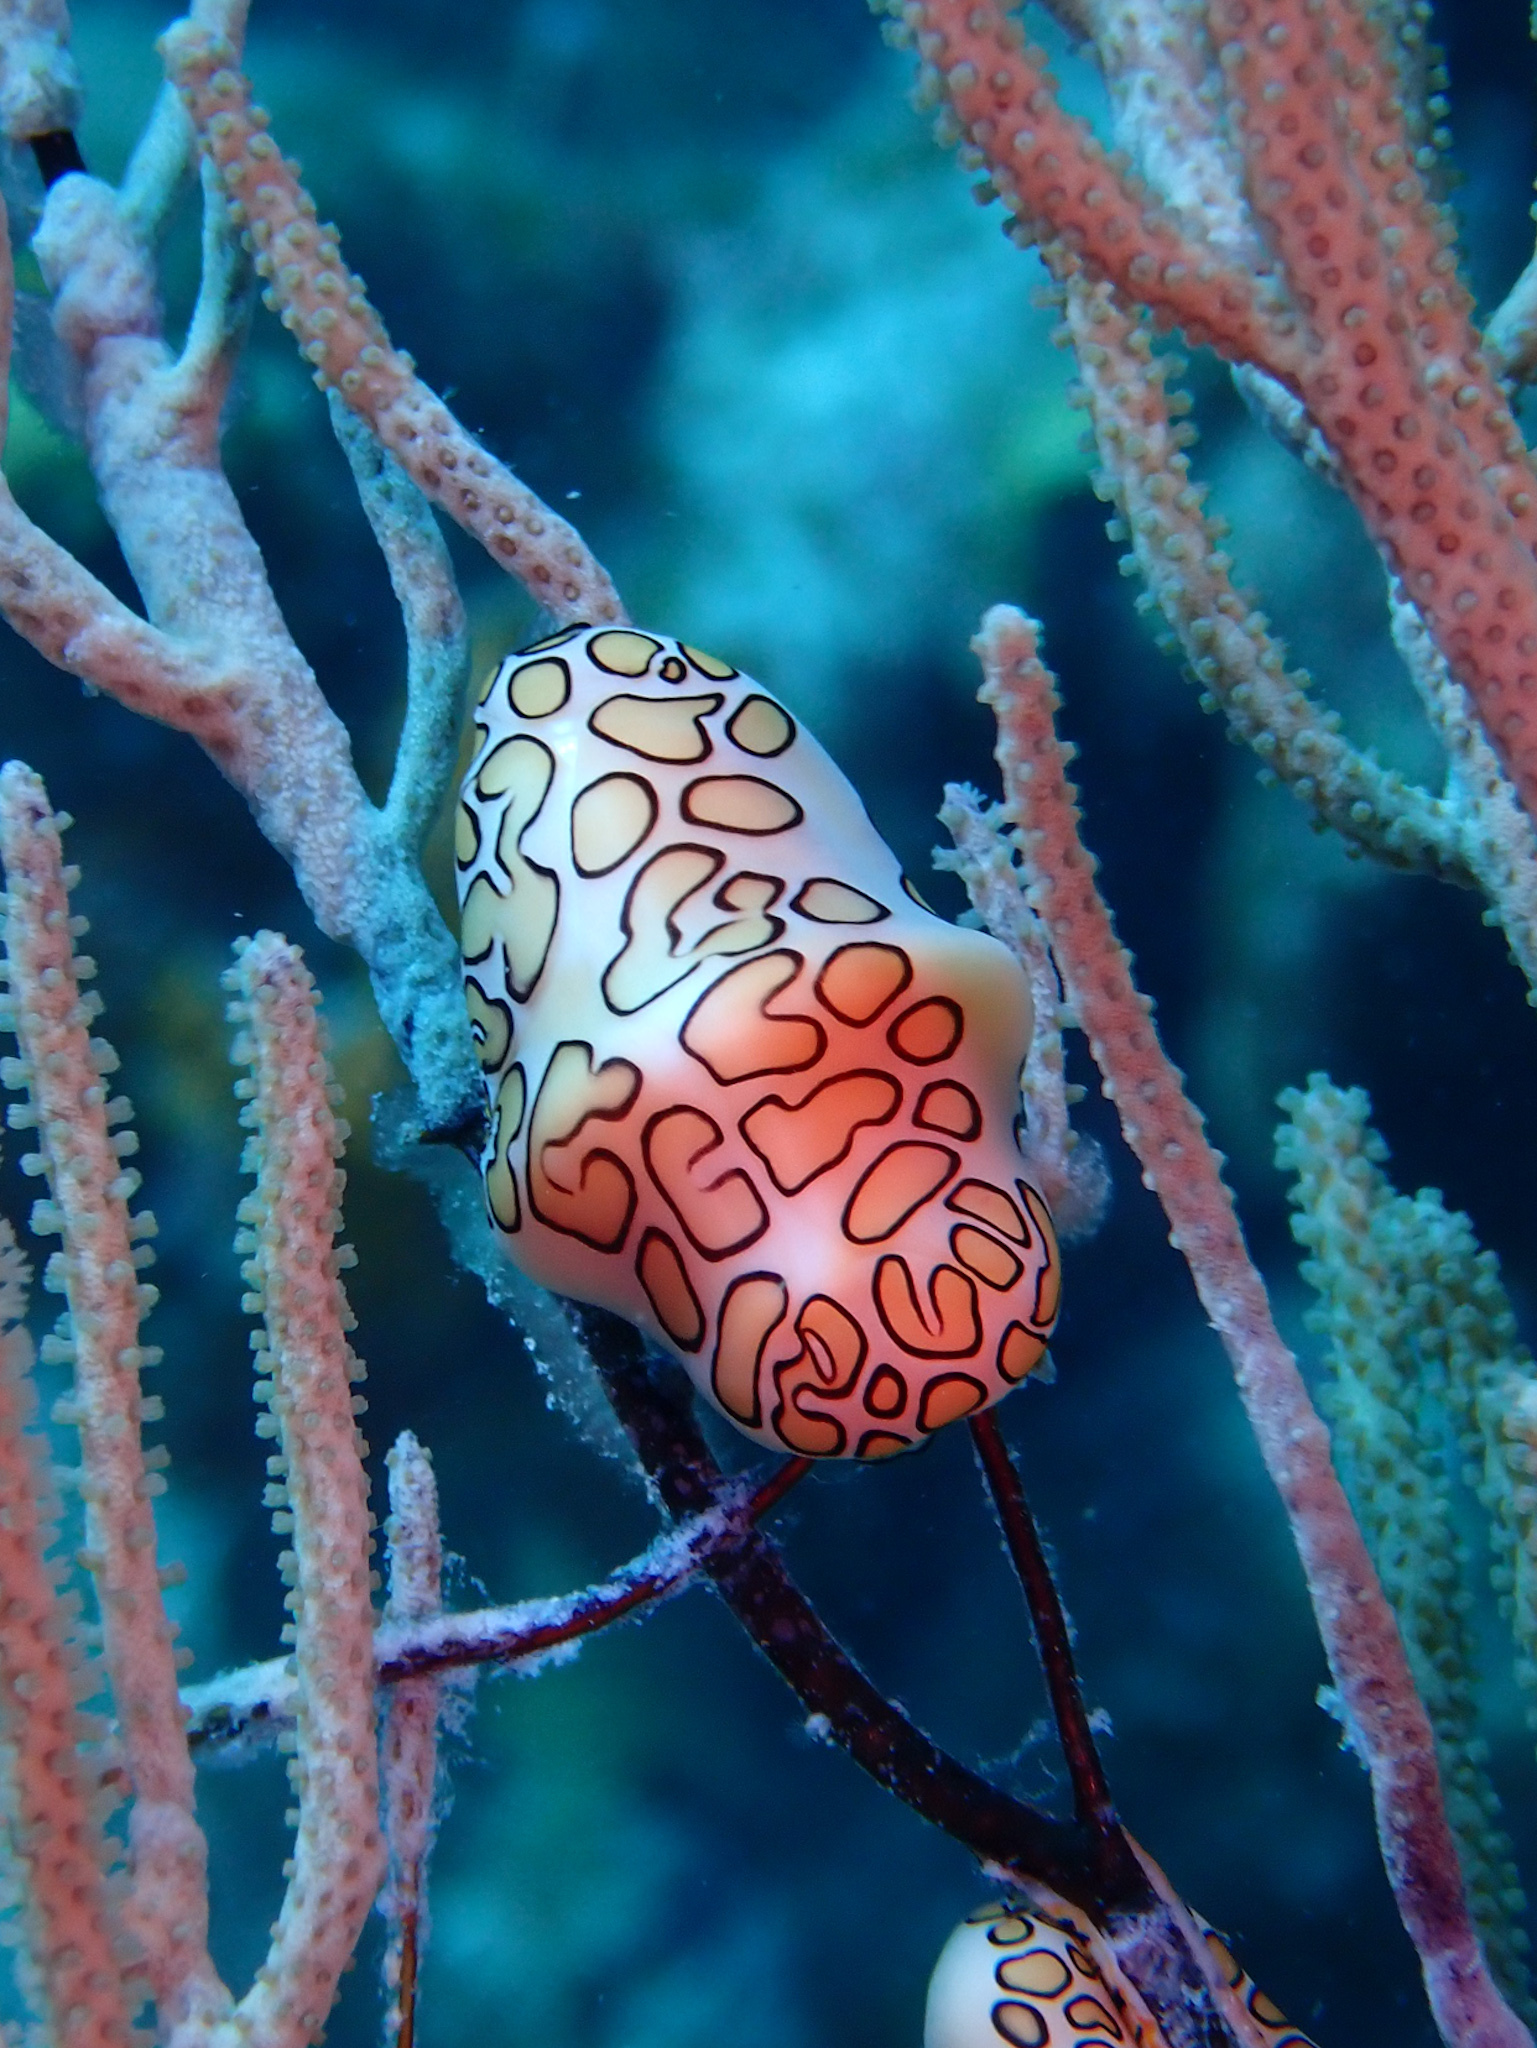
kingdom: Animalia
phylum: Mollusca
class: Gastropoda
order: Littorinimorpha
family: Ovulidae
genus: Cyphoma
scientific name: Cyphoma gibbosum
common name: Flamingo tongue
